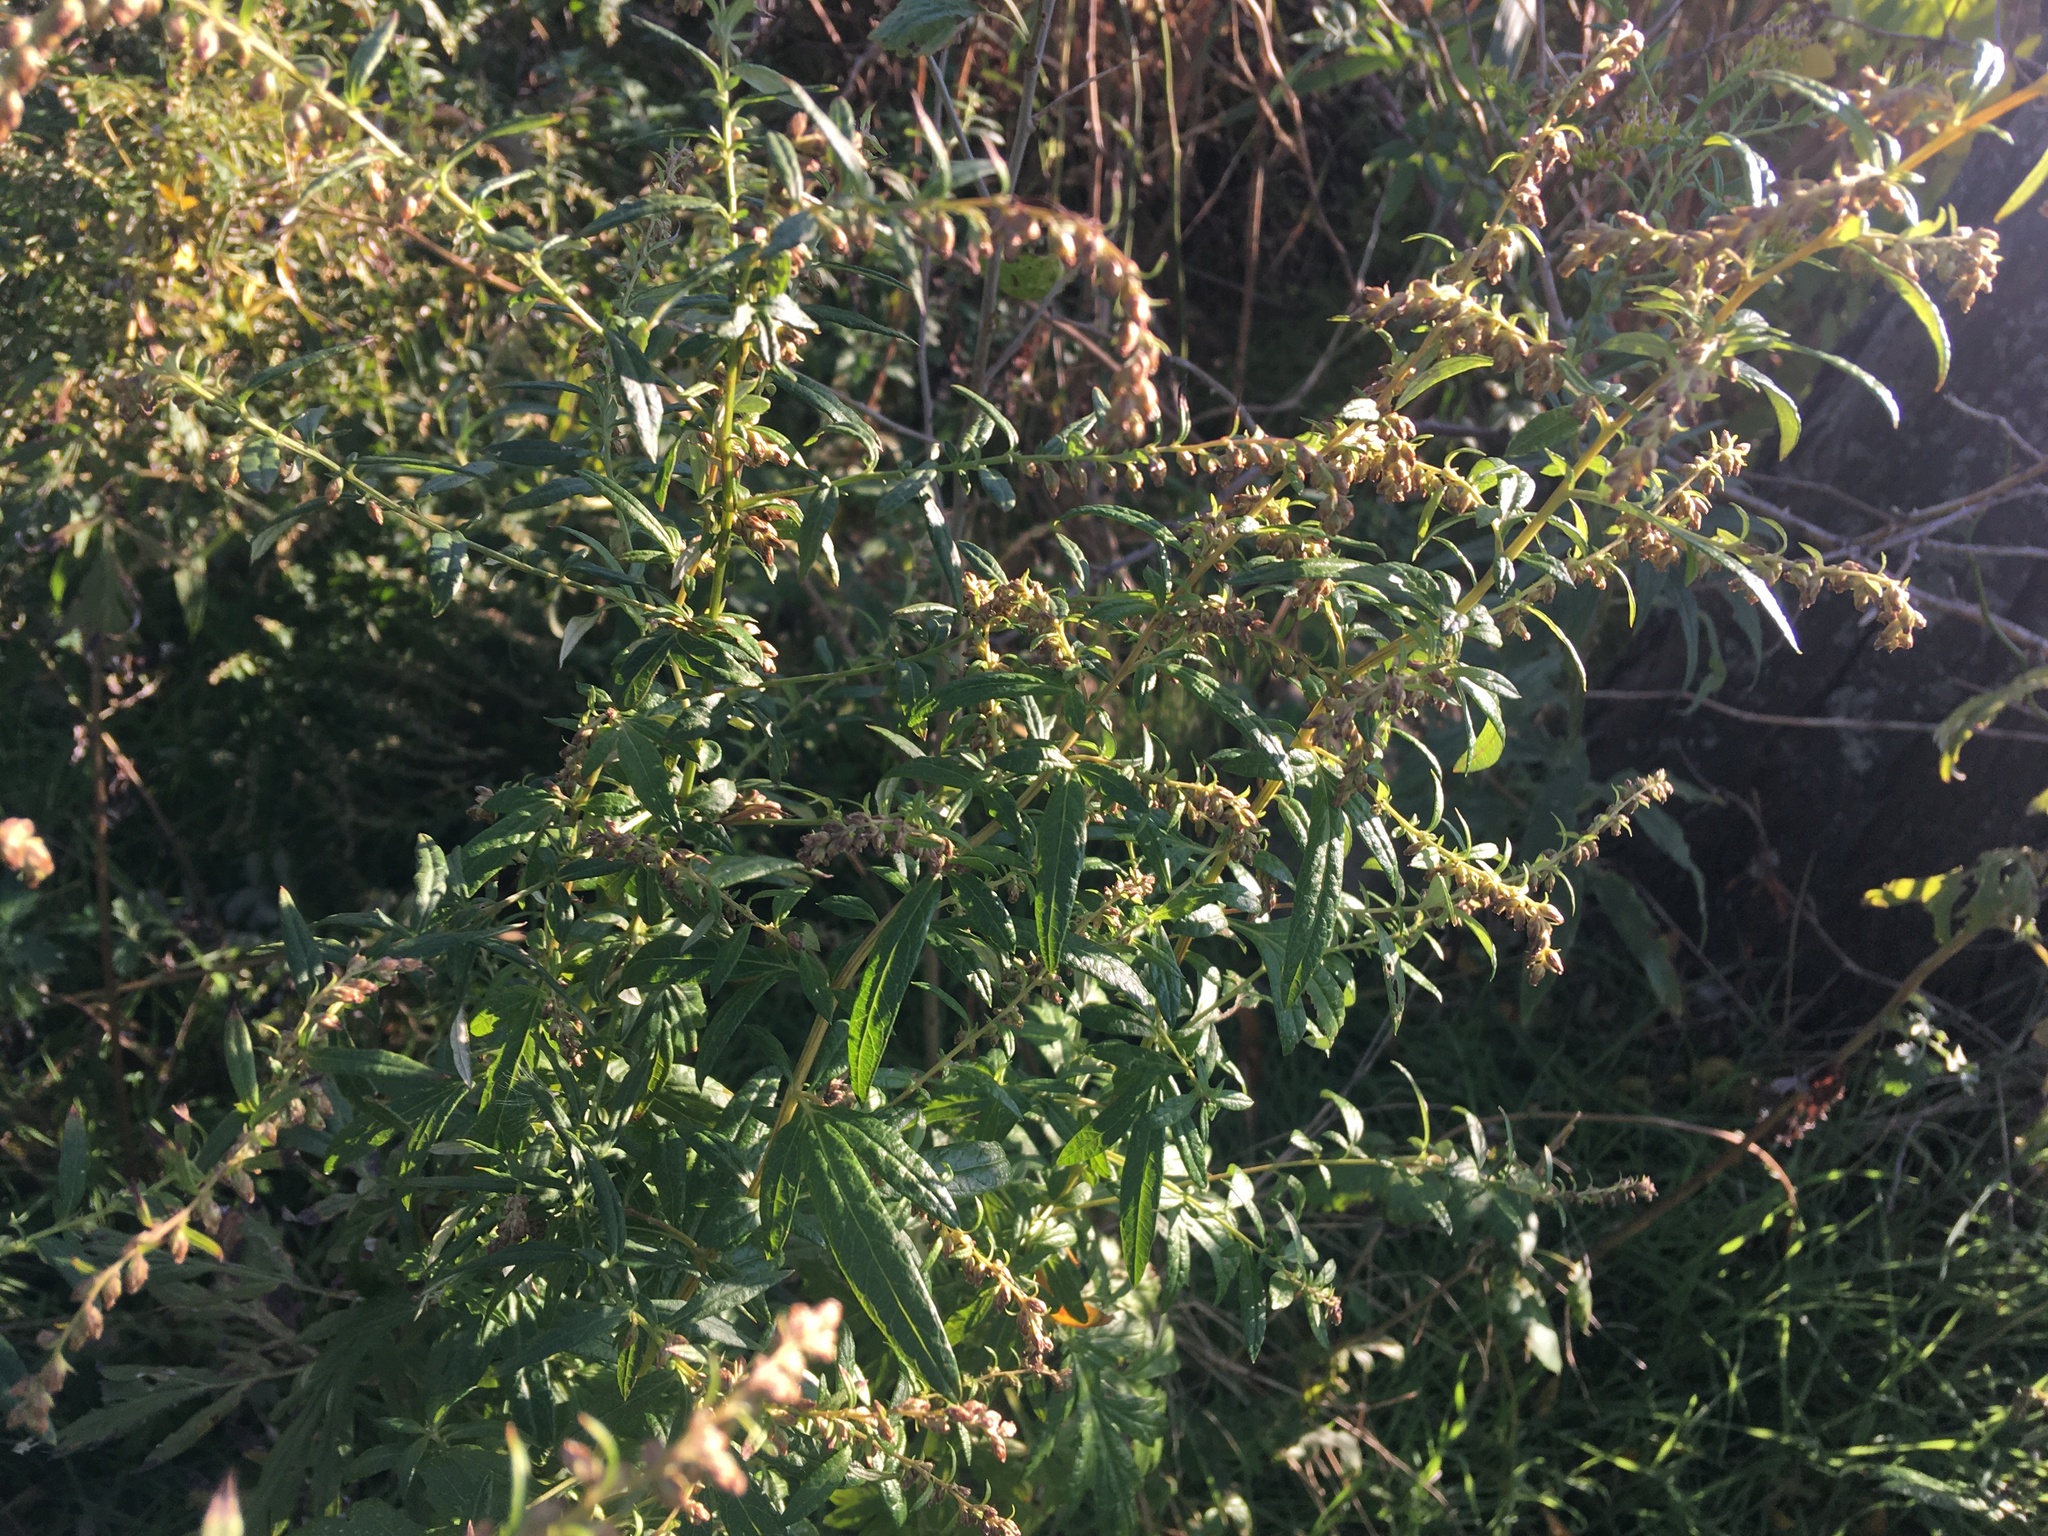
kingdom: Plantae
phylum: Tracheophyta
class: Magnoliopsida
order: Asterales
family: Asteraceae
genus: Artemisia
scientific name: Artemisia vulgaris
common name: Mugwort
